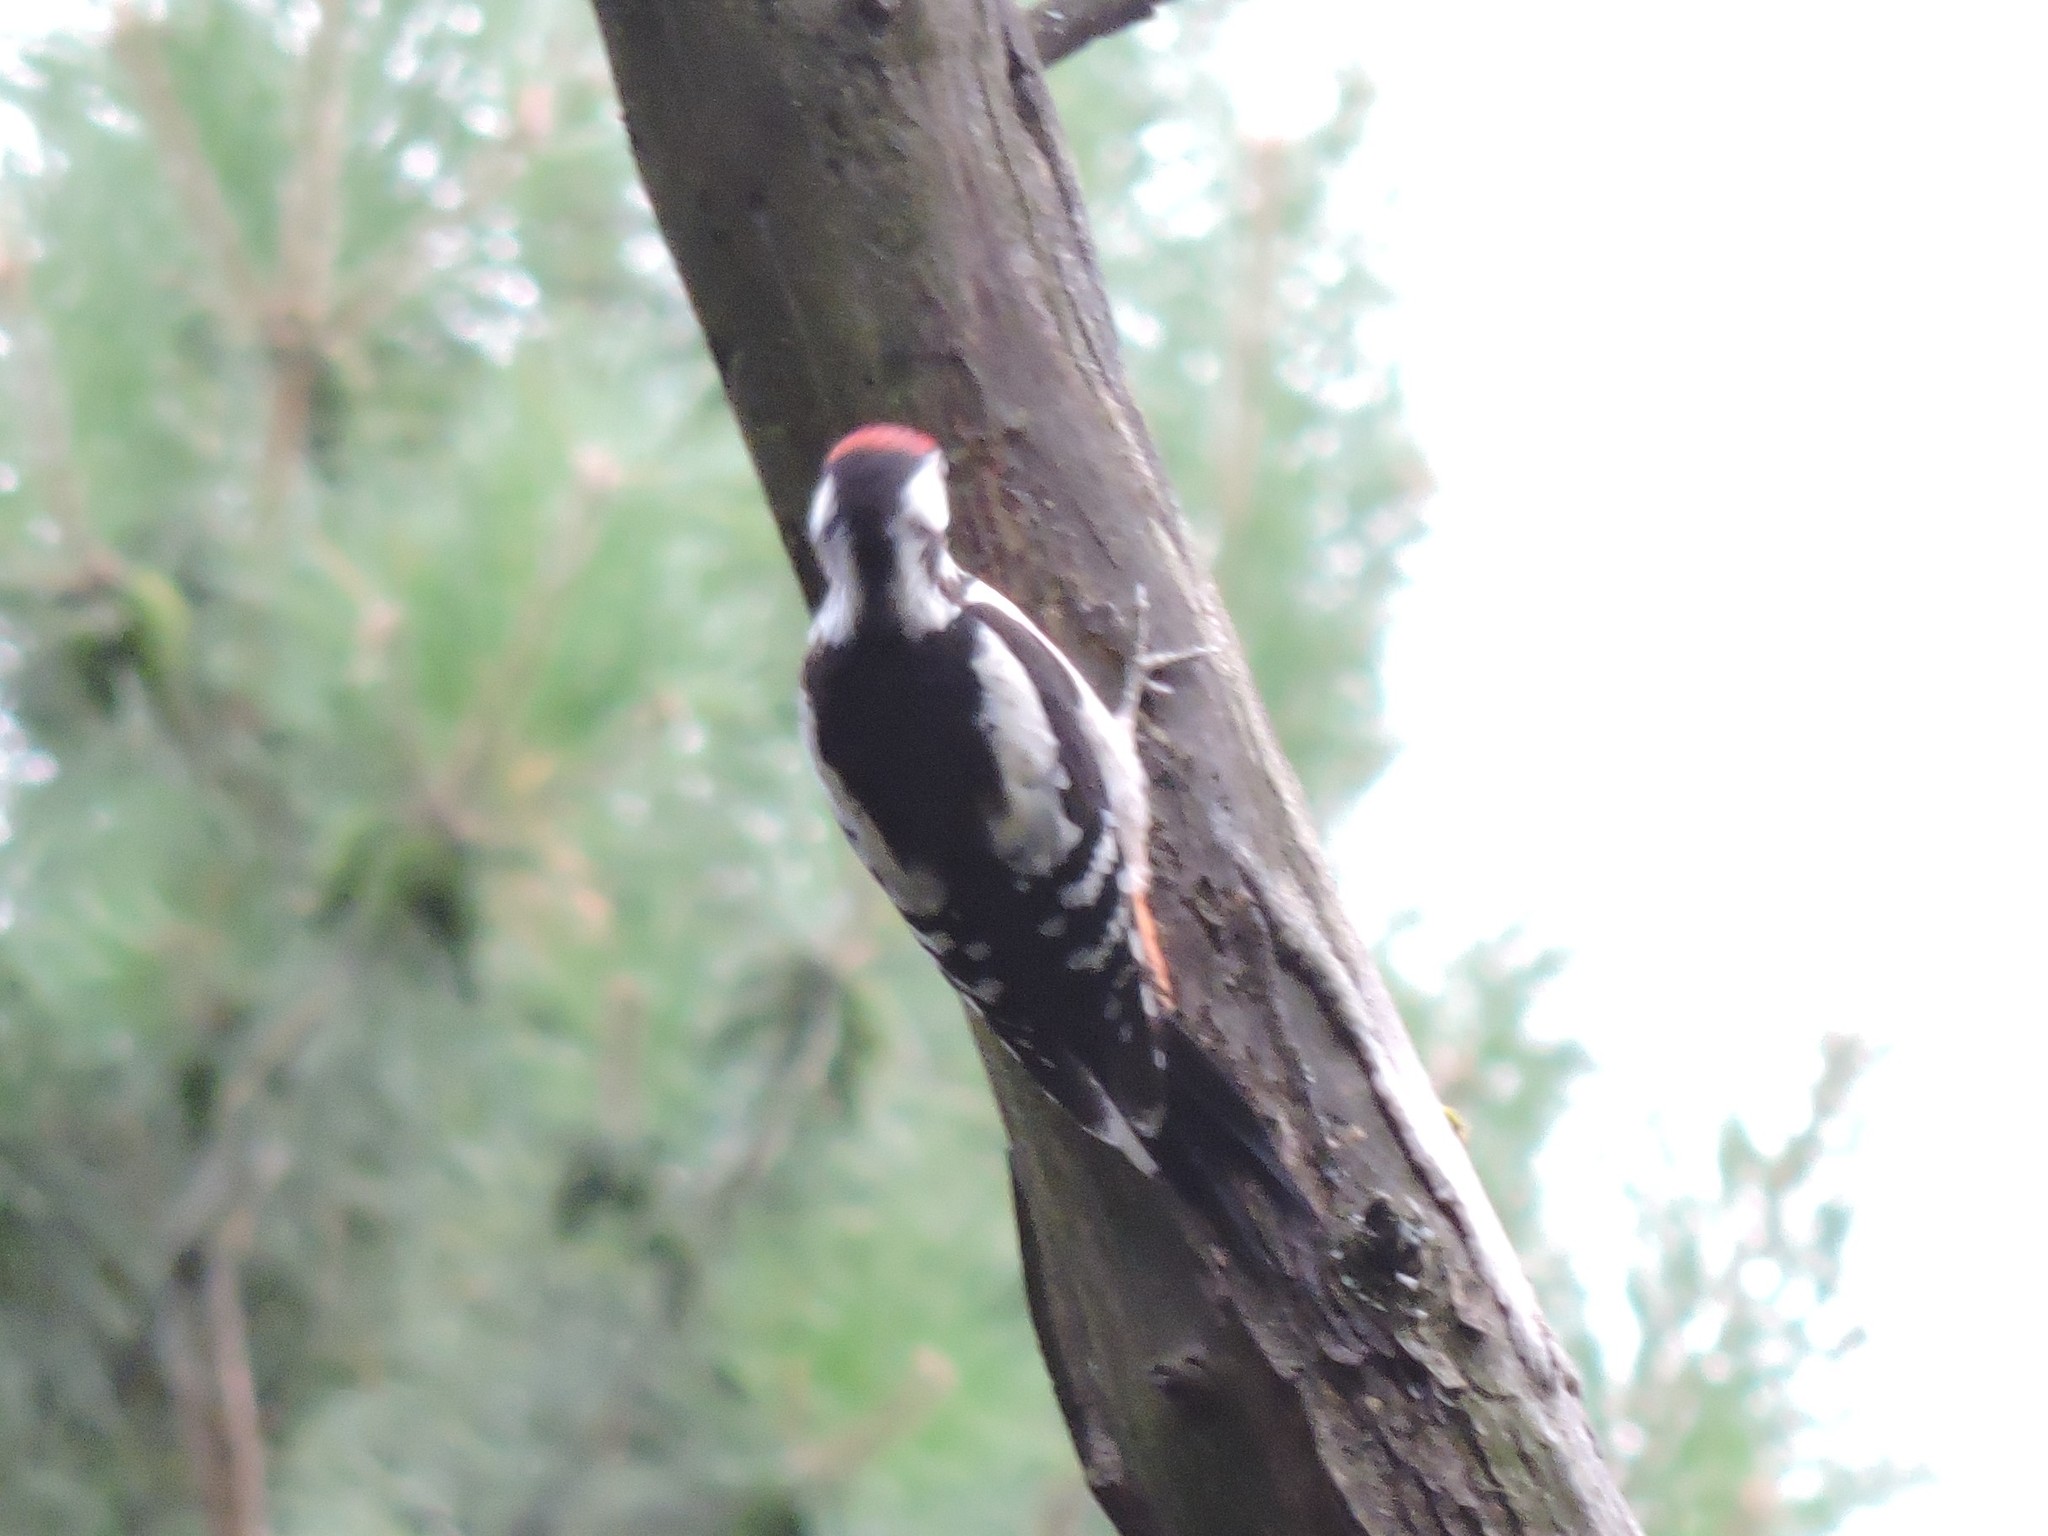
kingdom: Animalia
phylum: Chordata
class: Aves
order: Piciformes
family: Picidae
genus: Dendrocopos
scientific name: Dendrocopos major
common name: Great spotted woodpecker
